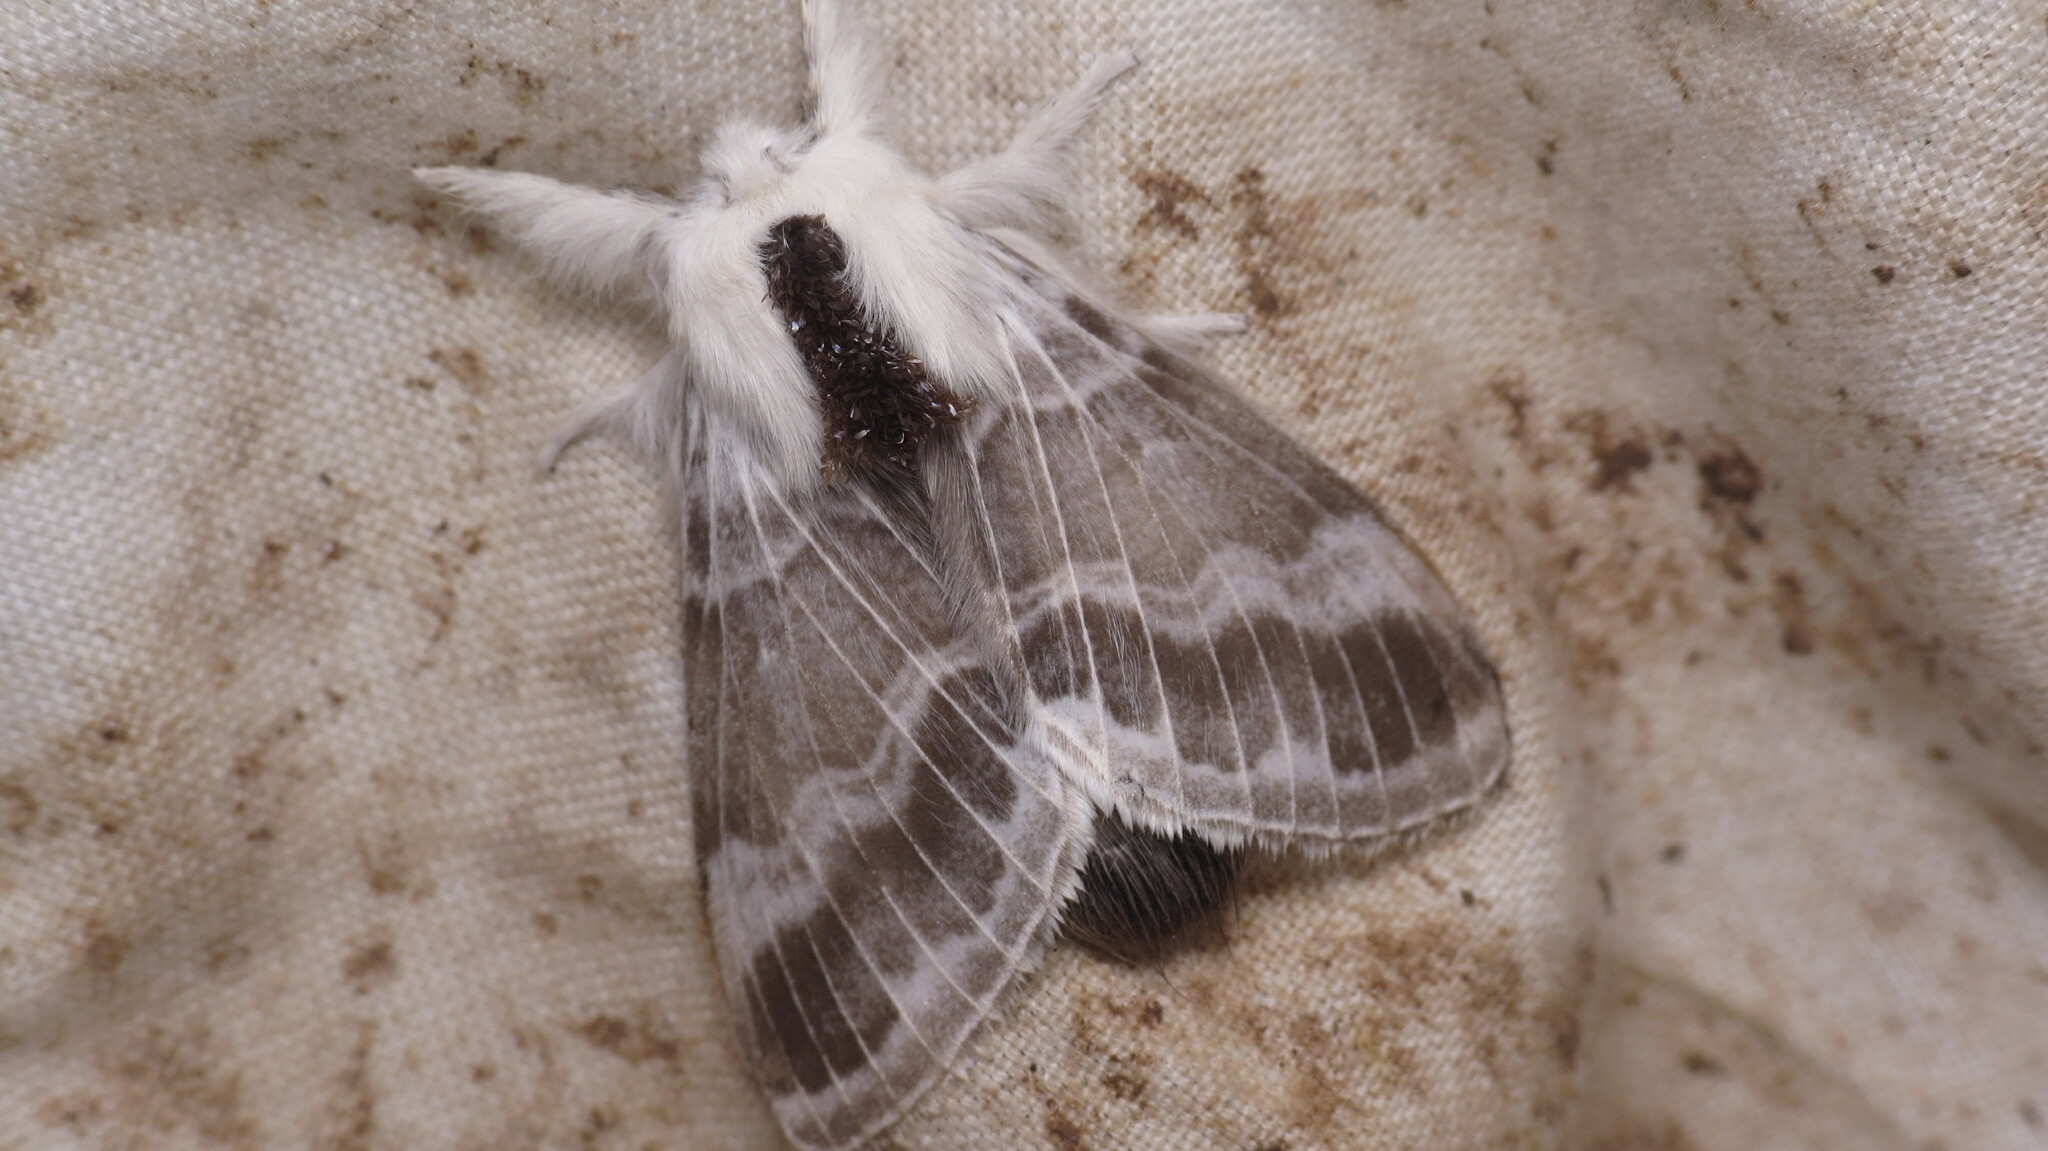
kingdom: Animalia
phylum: Arthropoda
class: Insecta
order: Lepidoptera
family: Lasiocampidae
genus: Tolype
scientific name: Tolype velleda
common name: Large tolype moth
